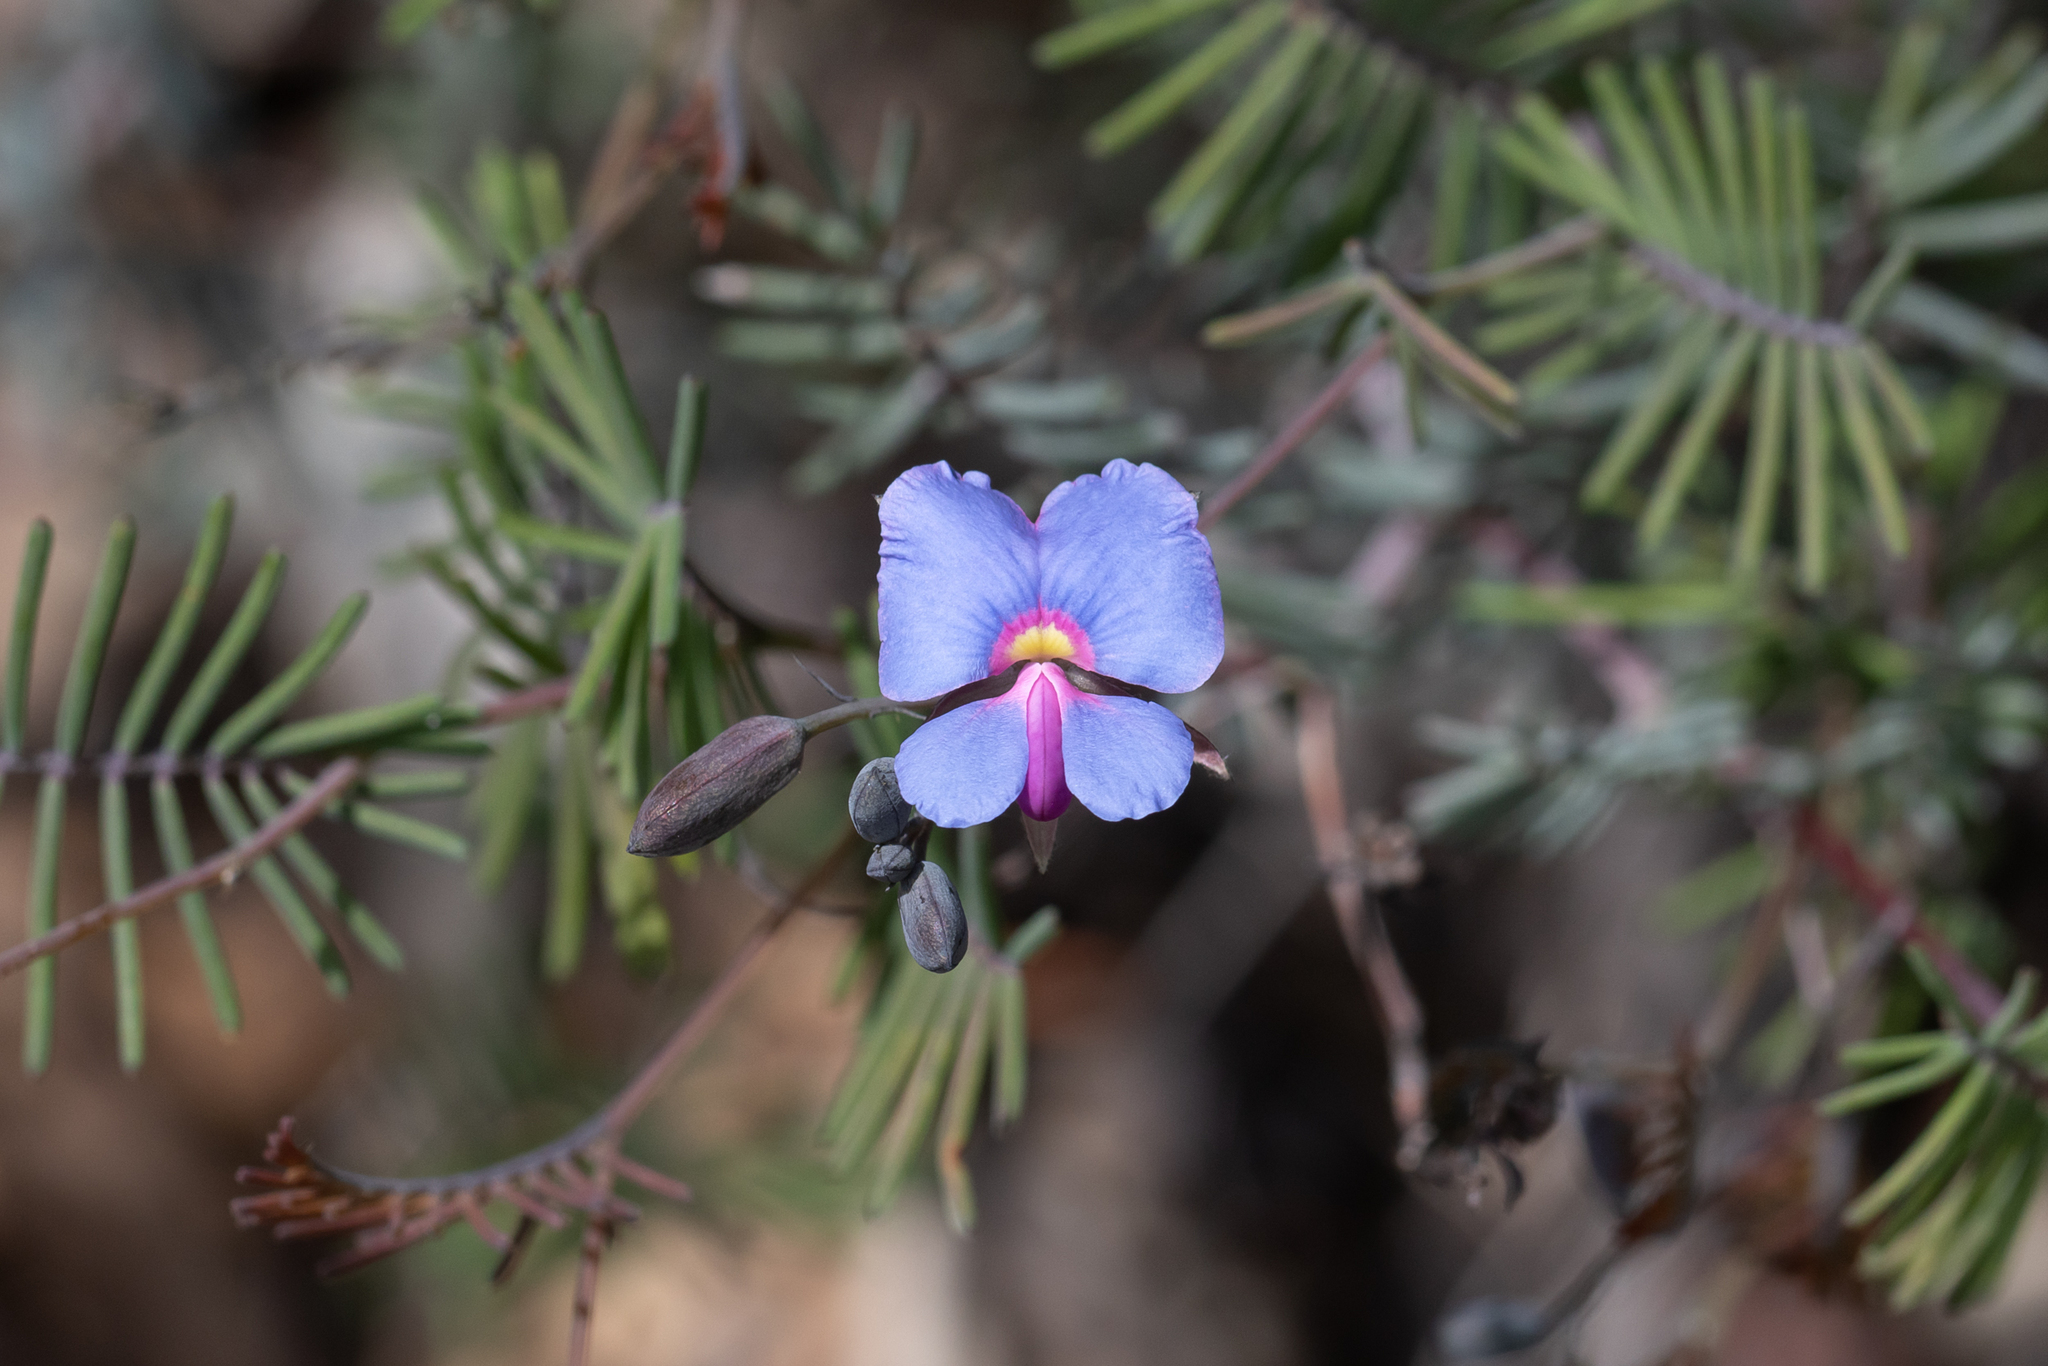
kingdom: Plantae
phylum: Tracheophyta
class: Magnoliopsida
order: Fabales
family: Fabaceae
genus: Gompholobium
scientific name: Gompholobium cyaninum
